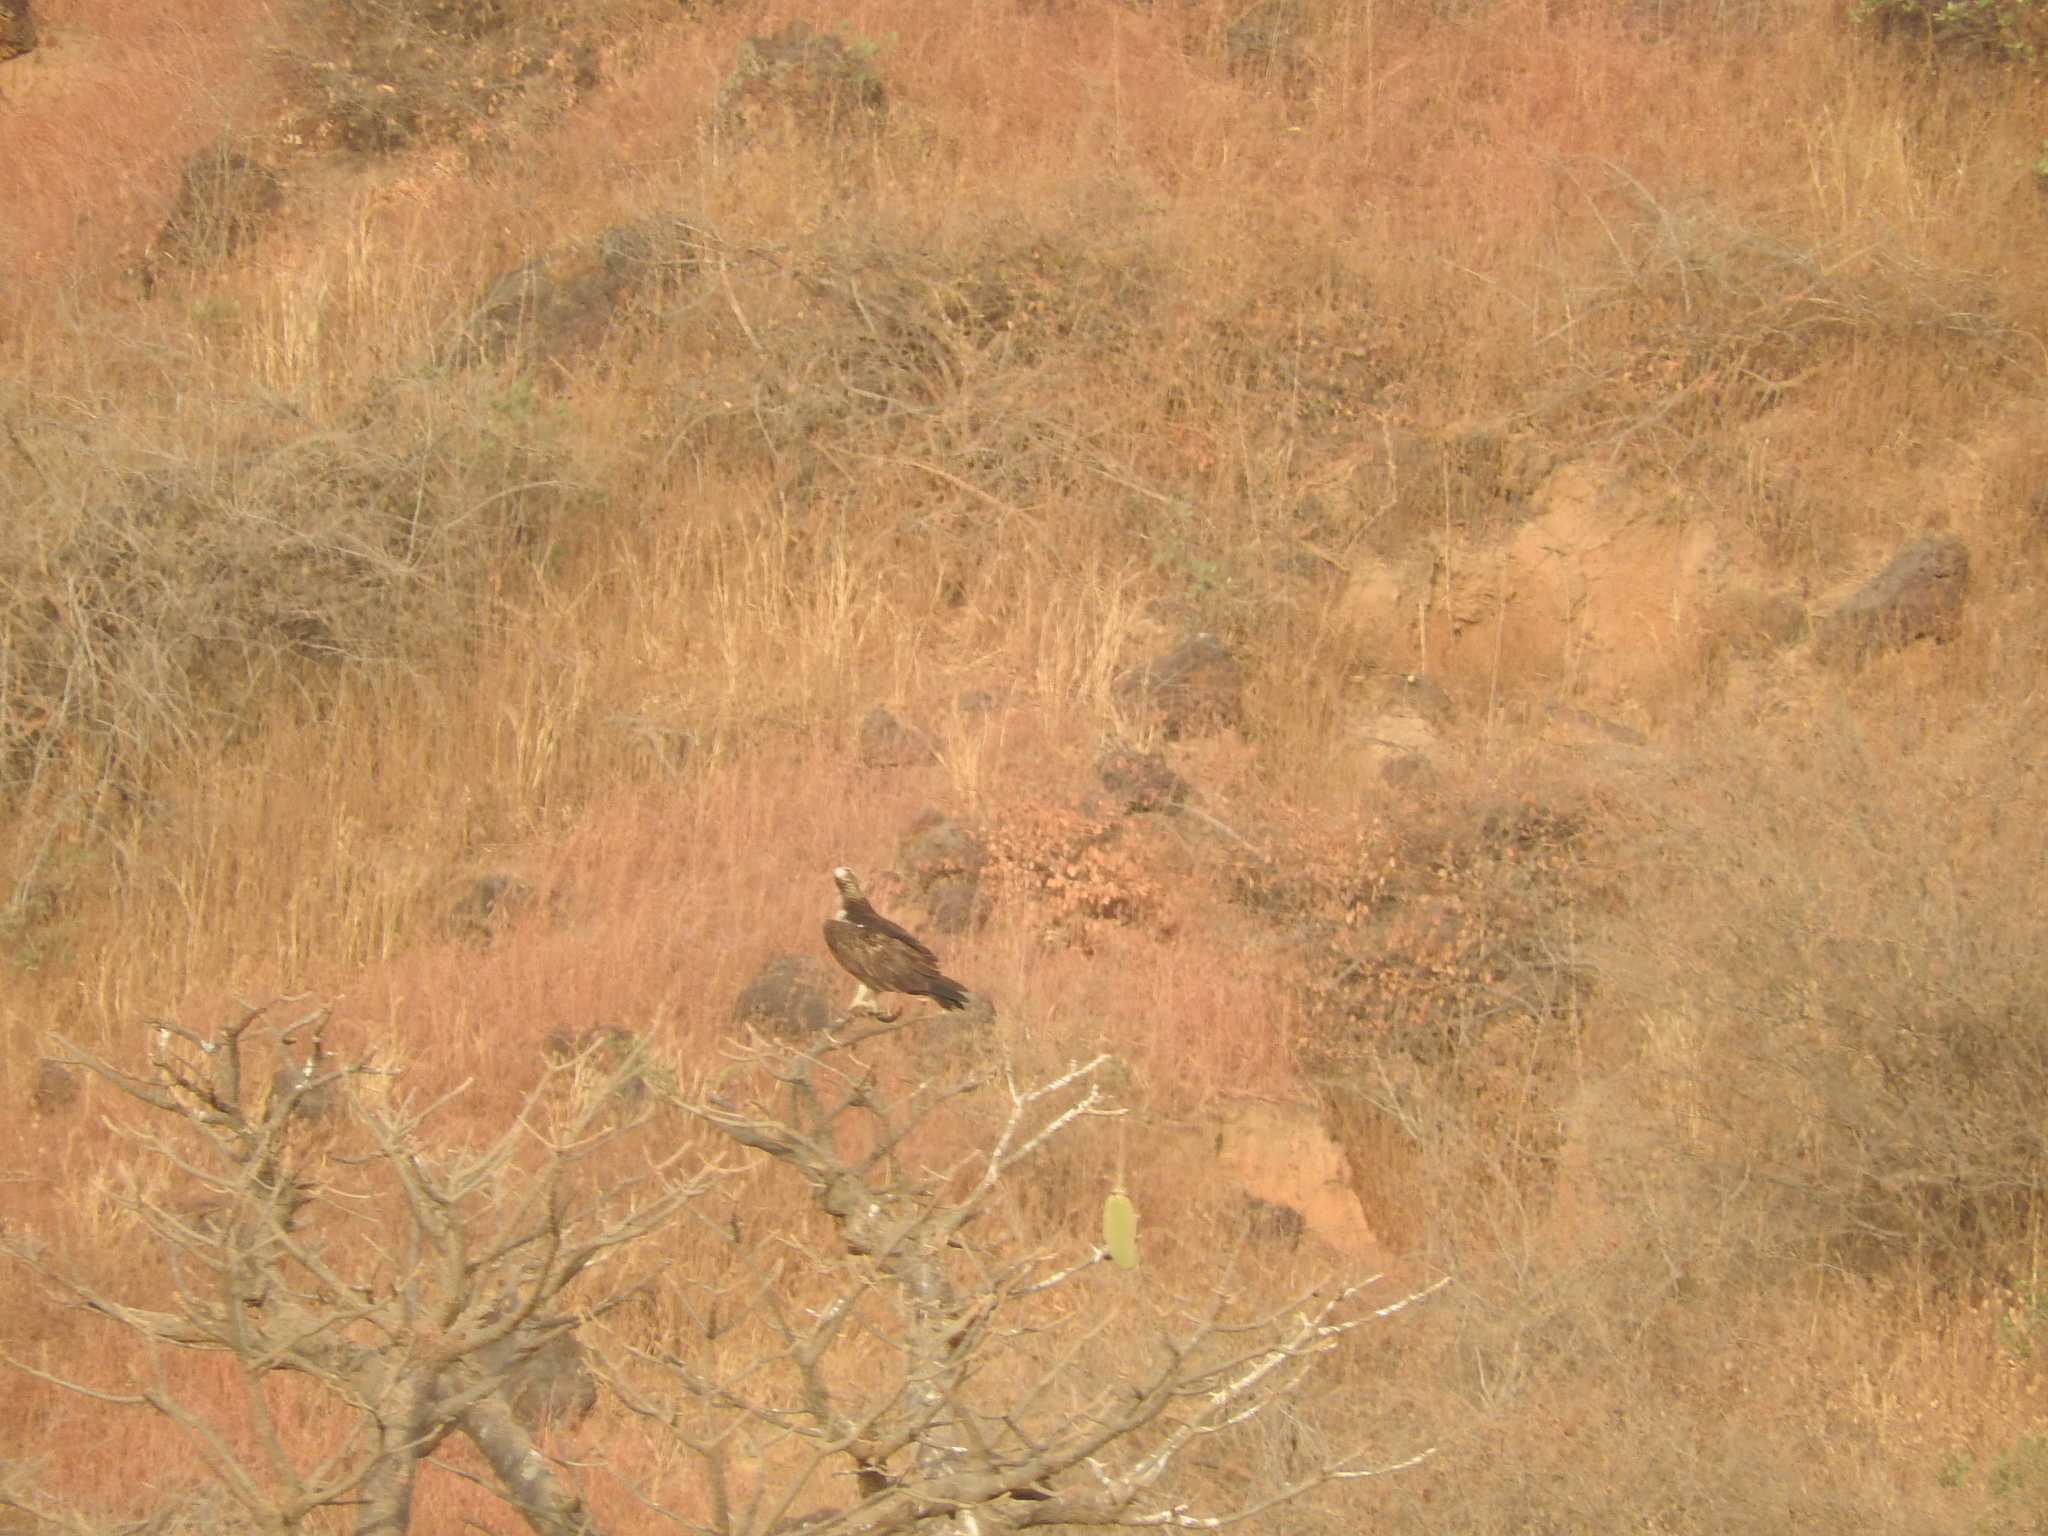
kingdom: Animalia
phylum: Chordata
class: Aves
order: Accipitriformes
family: Pandionidae
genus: Pandion
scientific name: Pandion haliaetus
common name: Osprey
